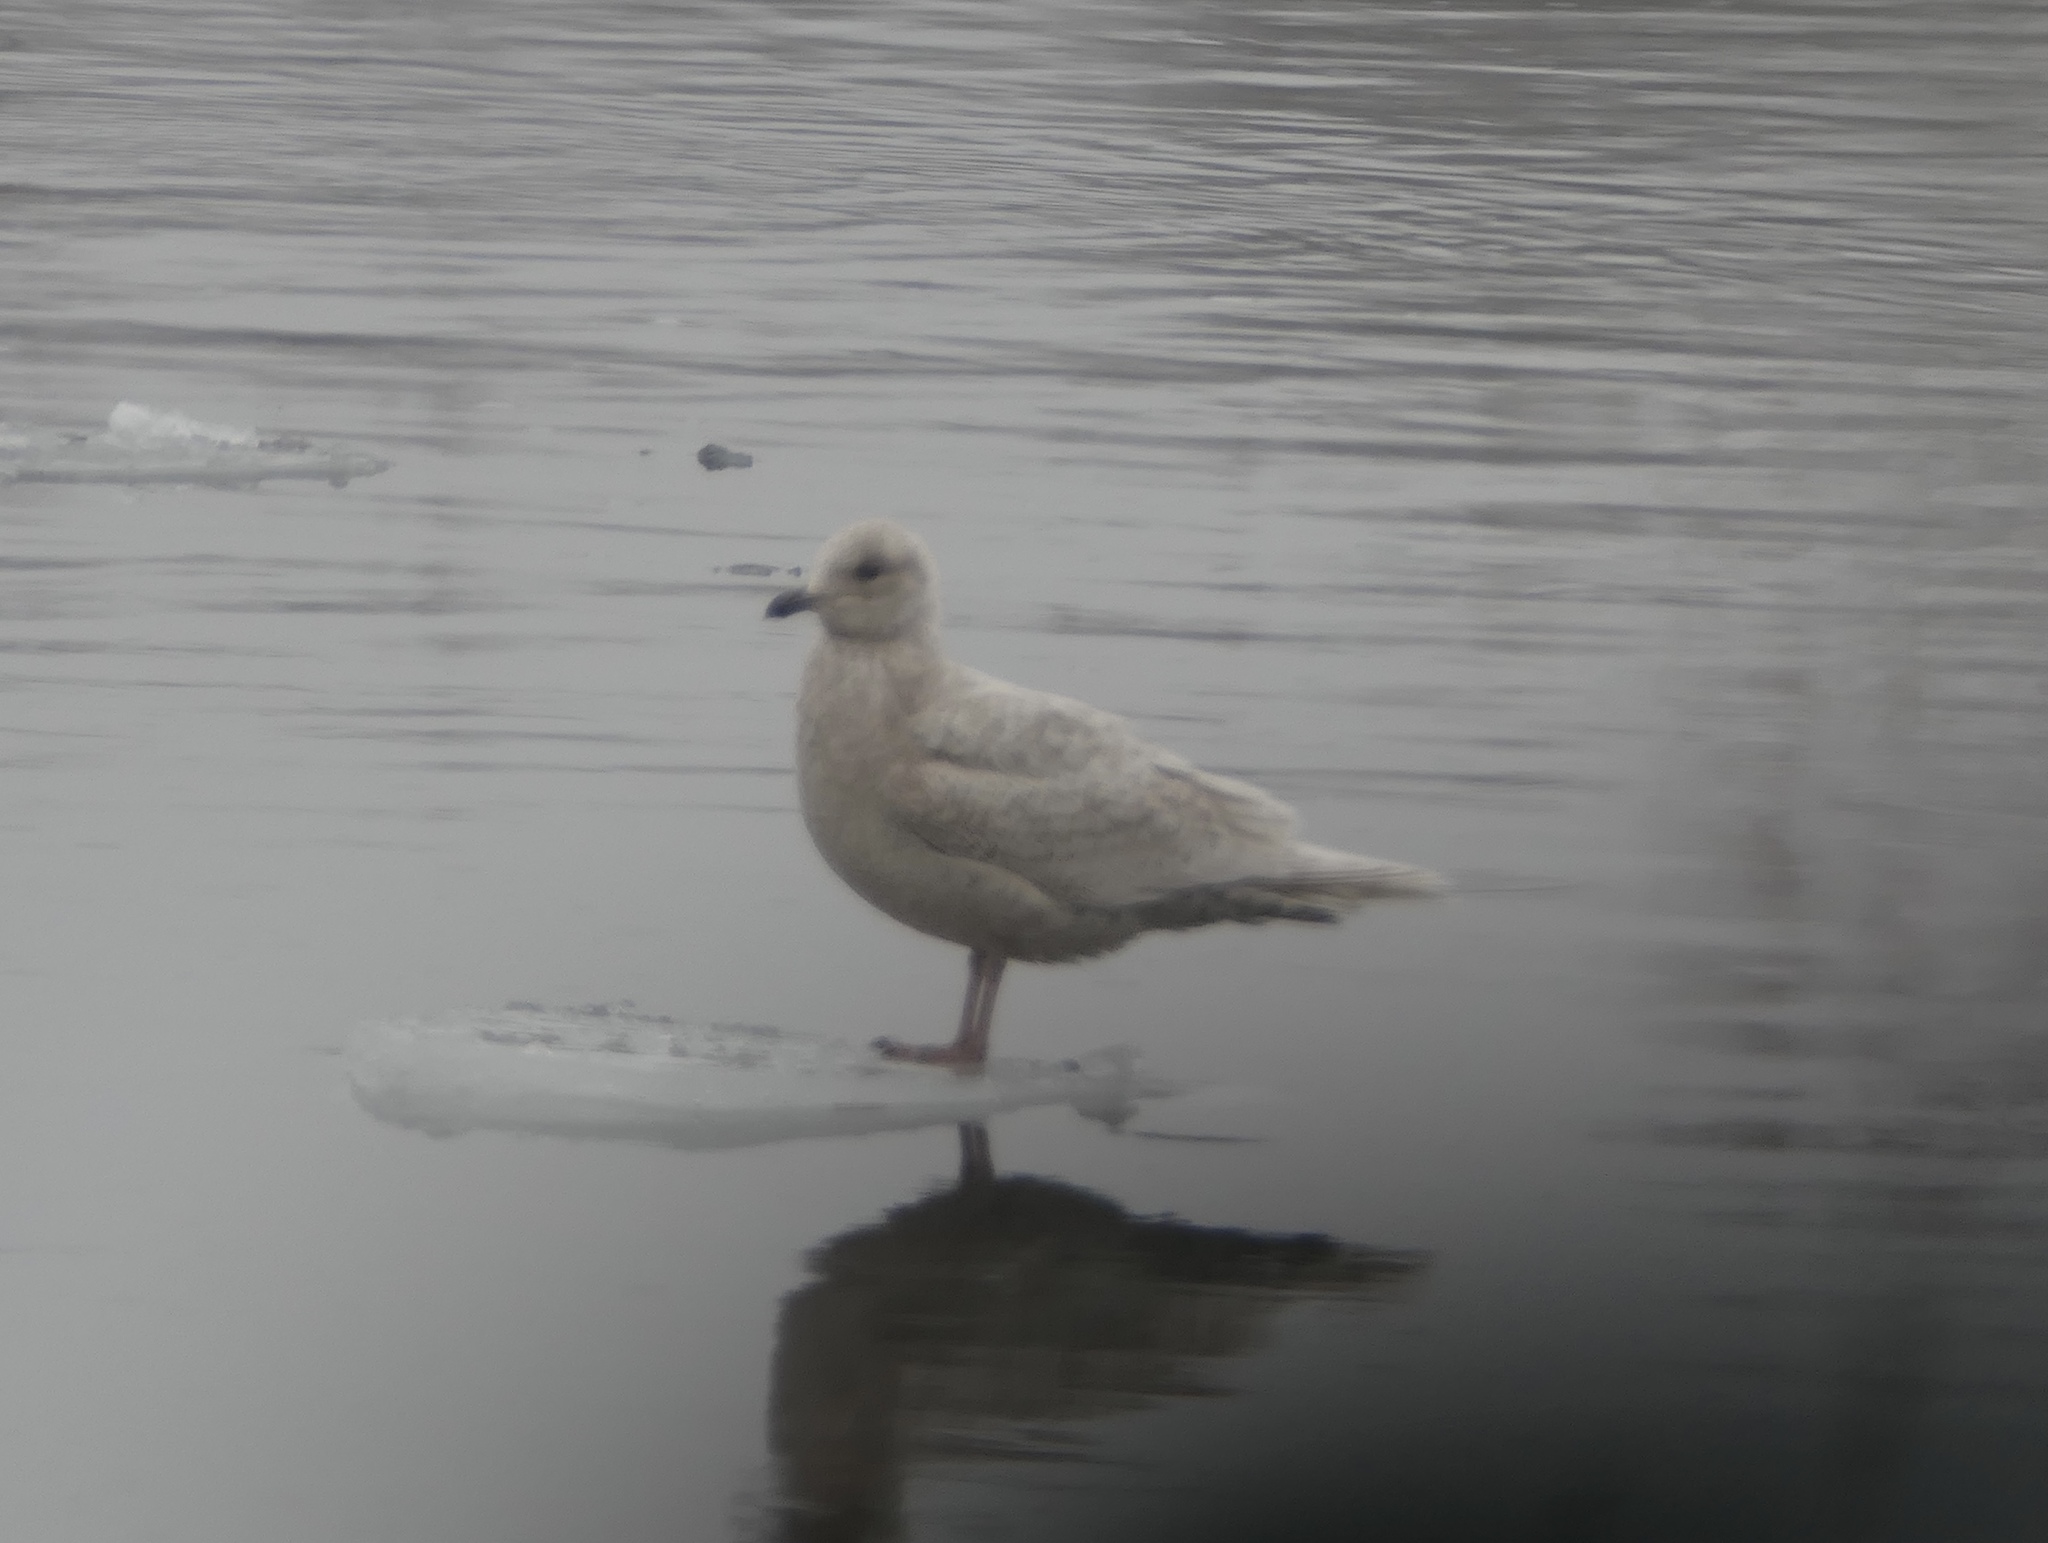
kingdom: Animalia
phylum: Chordata
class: Aves
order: Charadriiformes
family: Laridae
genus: Larus
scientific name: Larus glaucoides
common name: Iceland gull
